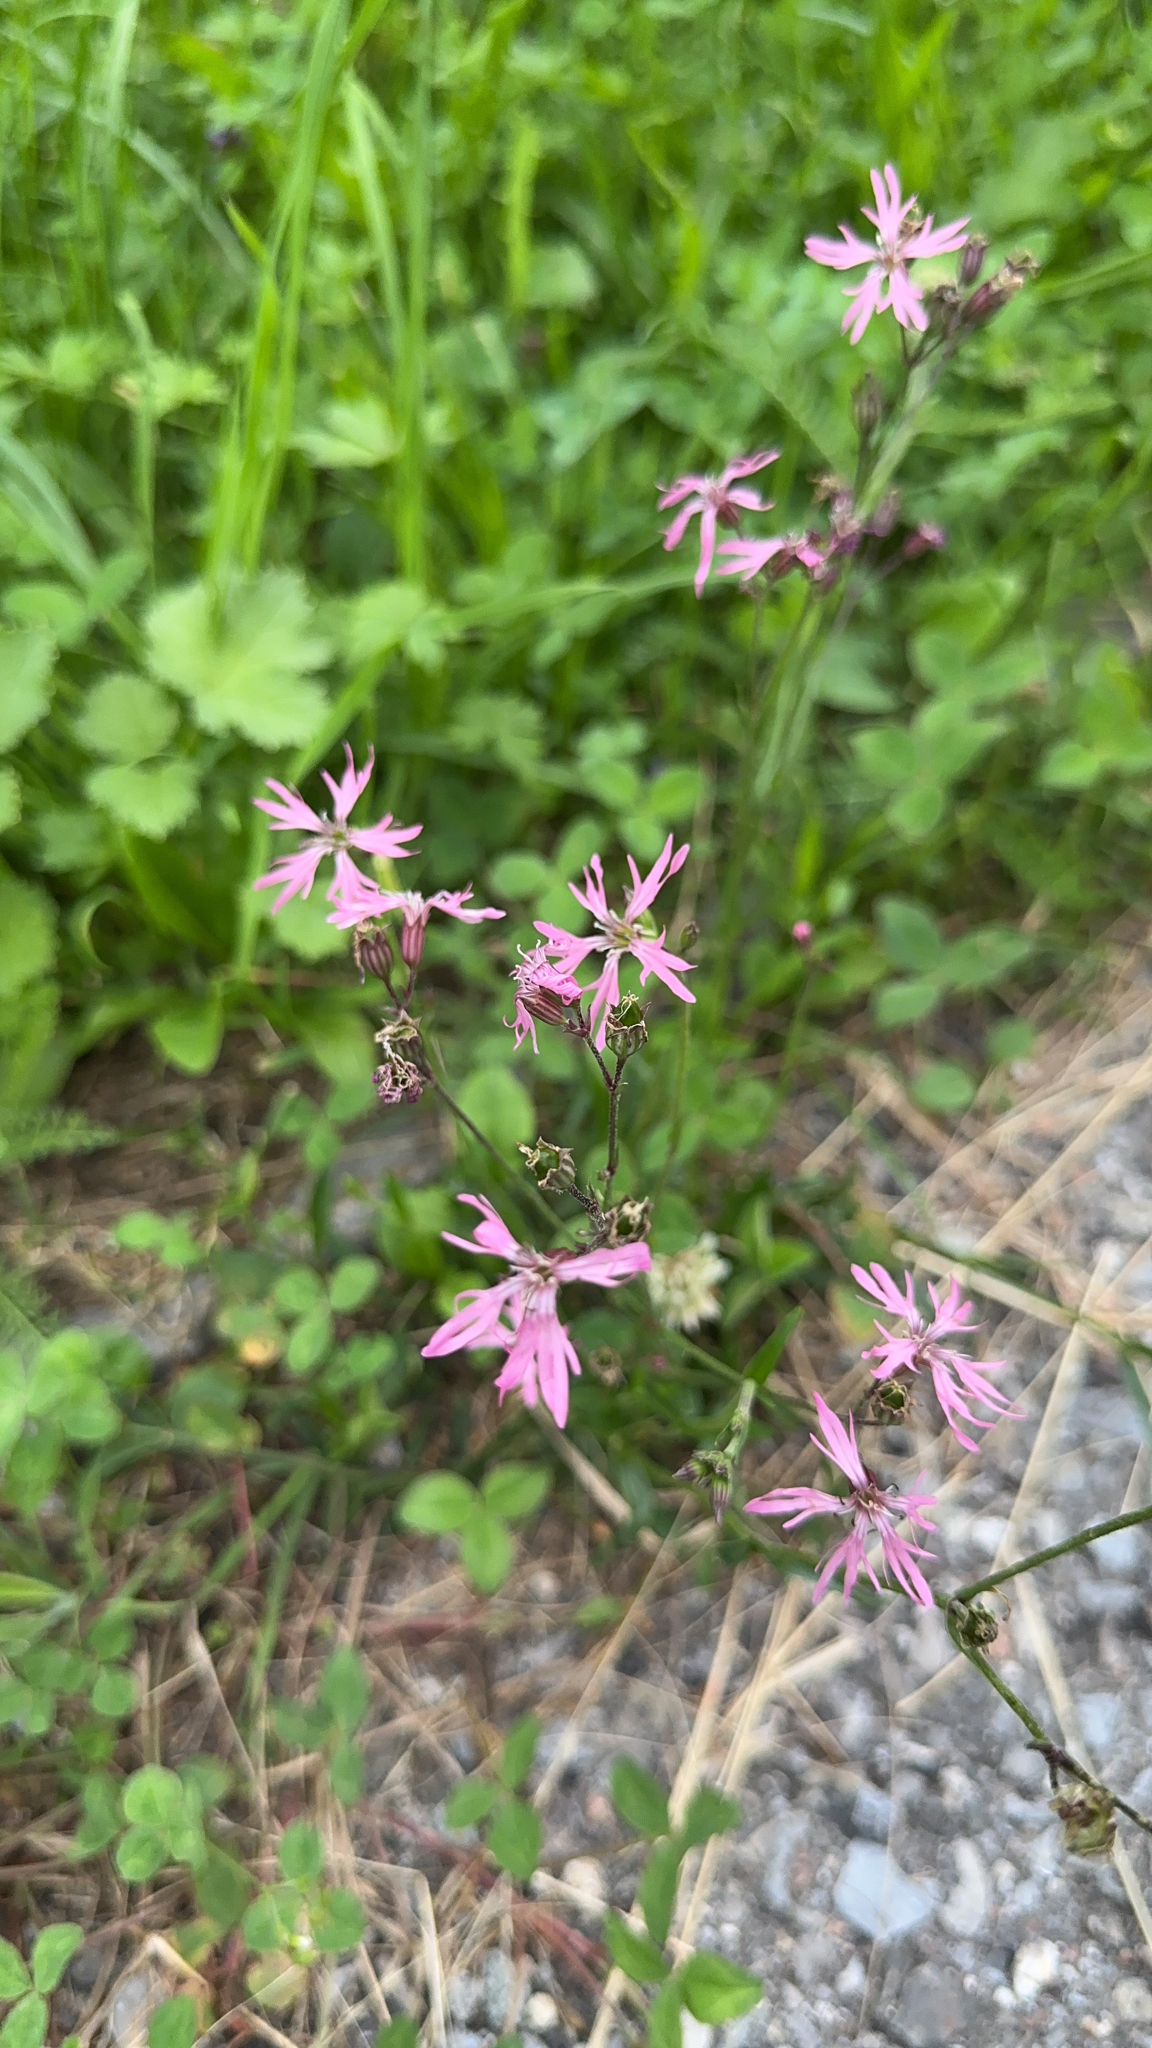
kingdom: Plantae
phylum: Tracheophyta
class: Magnoliopsida
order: Caryophyllales
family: Caryophyllaceae
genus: Silene
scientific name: Silene flos-cuculi
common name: Ragged-robin
